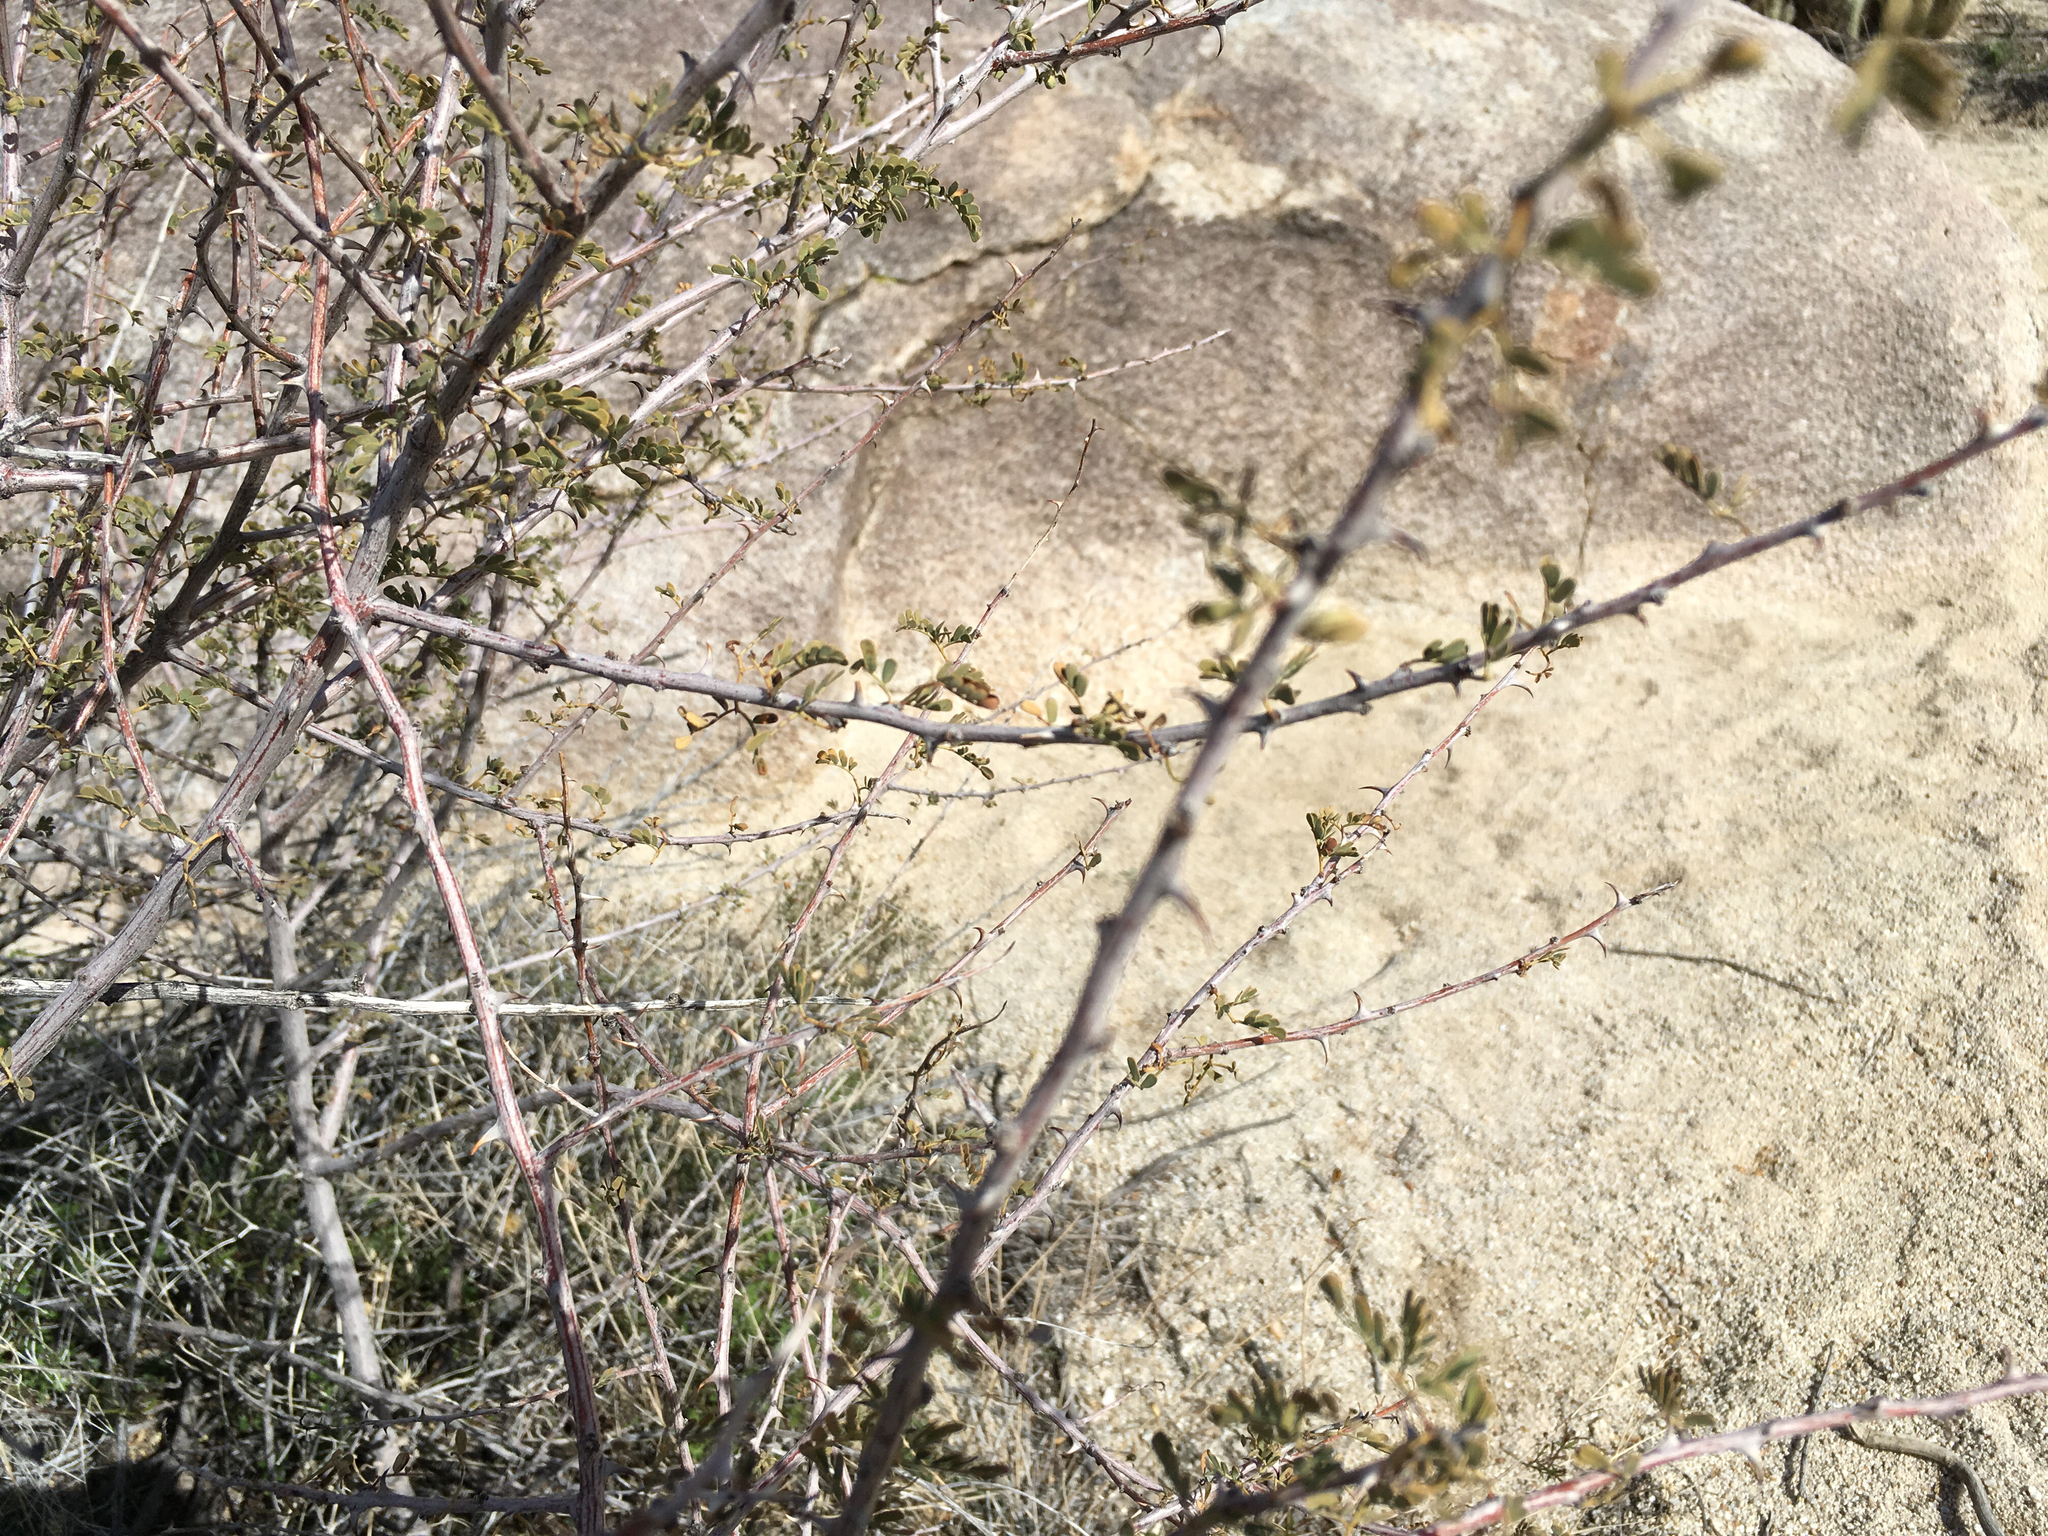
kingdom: Plantae
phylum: Tracheophyta
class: Magnoliopsida
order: Fabales
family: Fabaceae
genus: Senegalia
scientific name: Senegalia greggii
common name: Texas-mimosa
